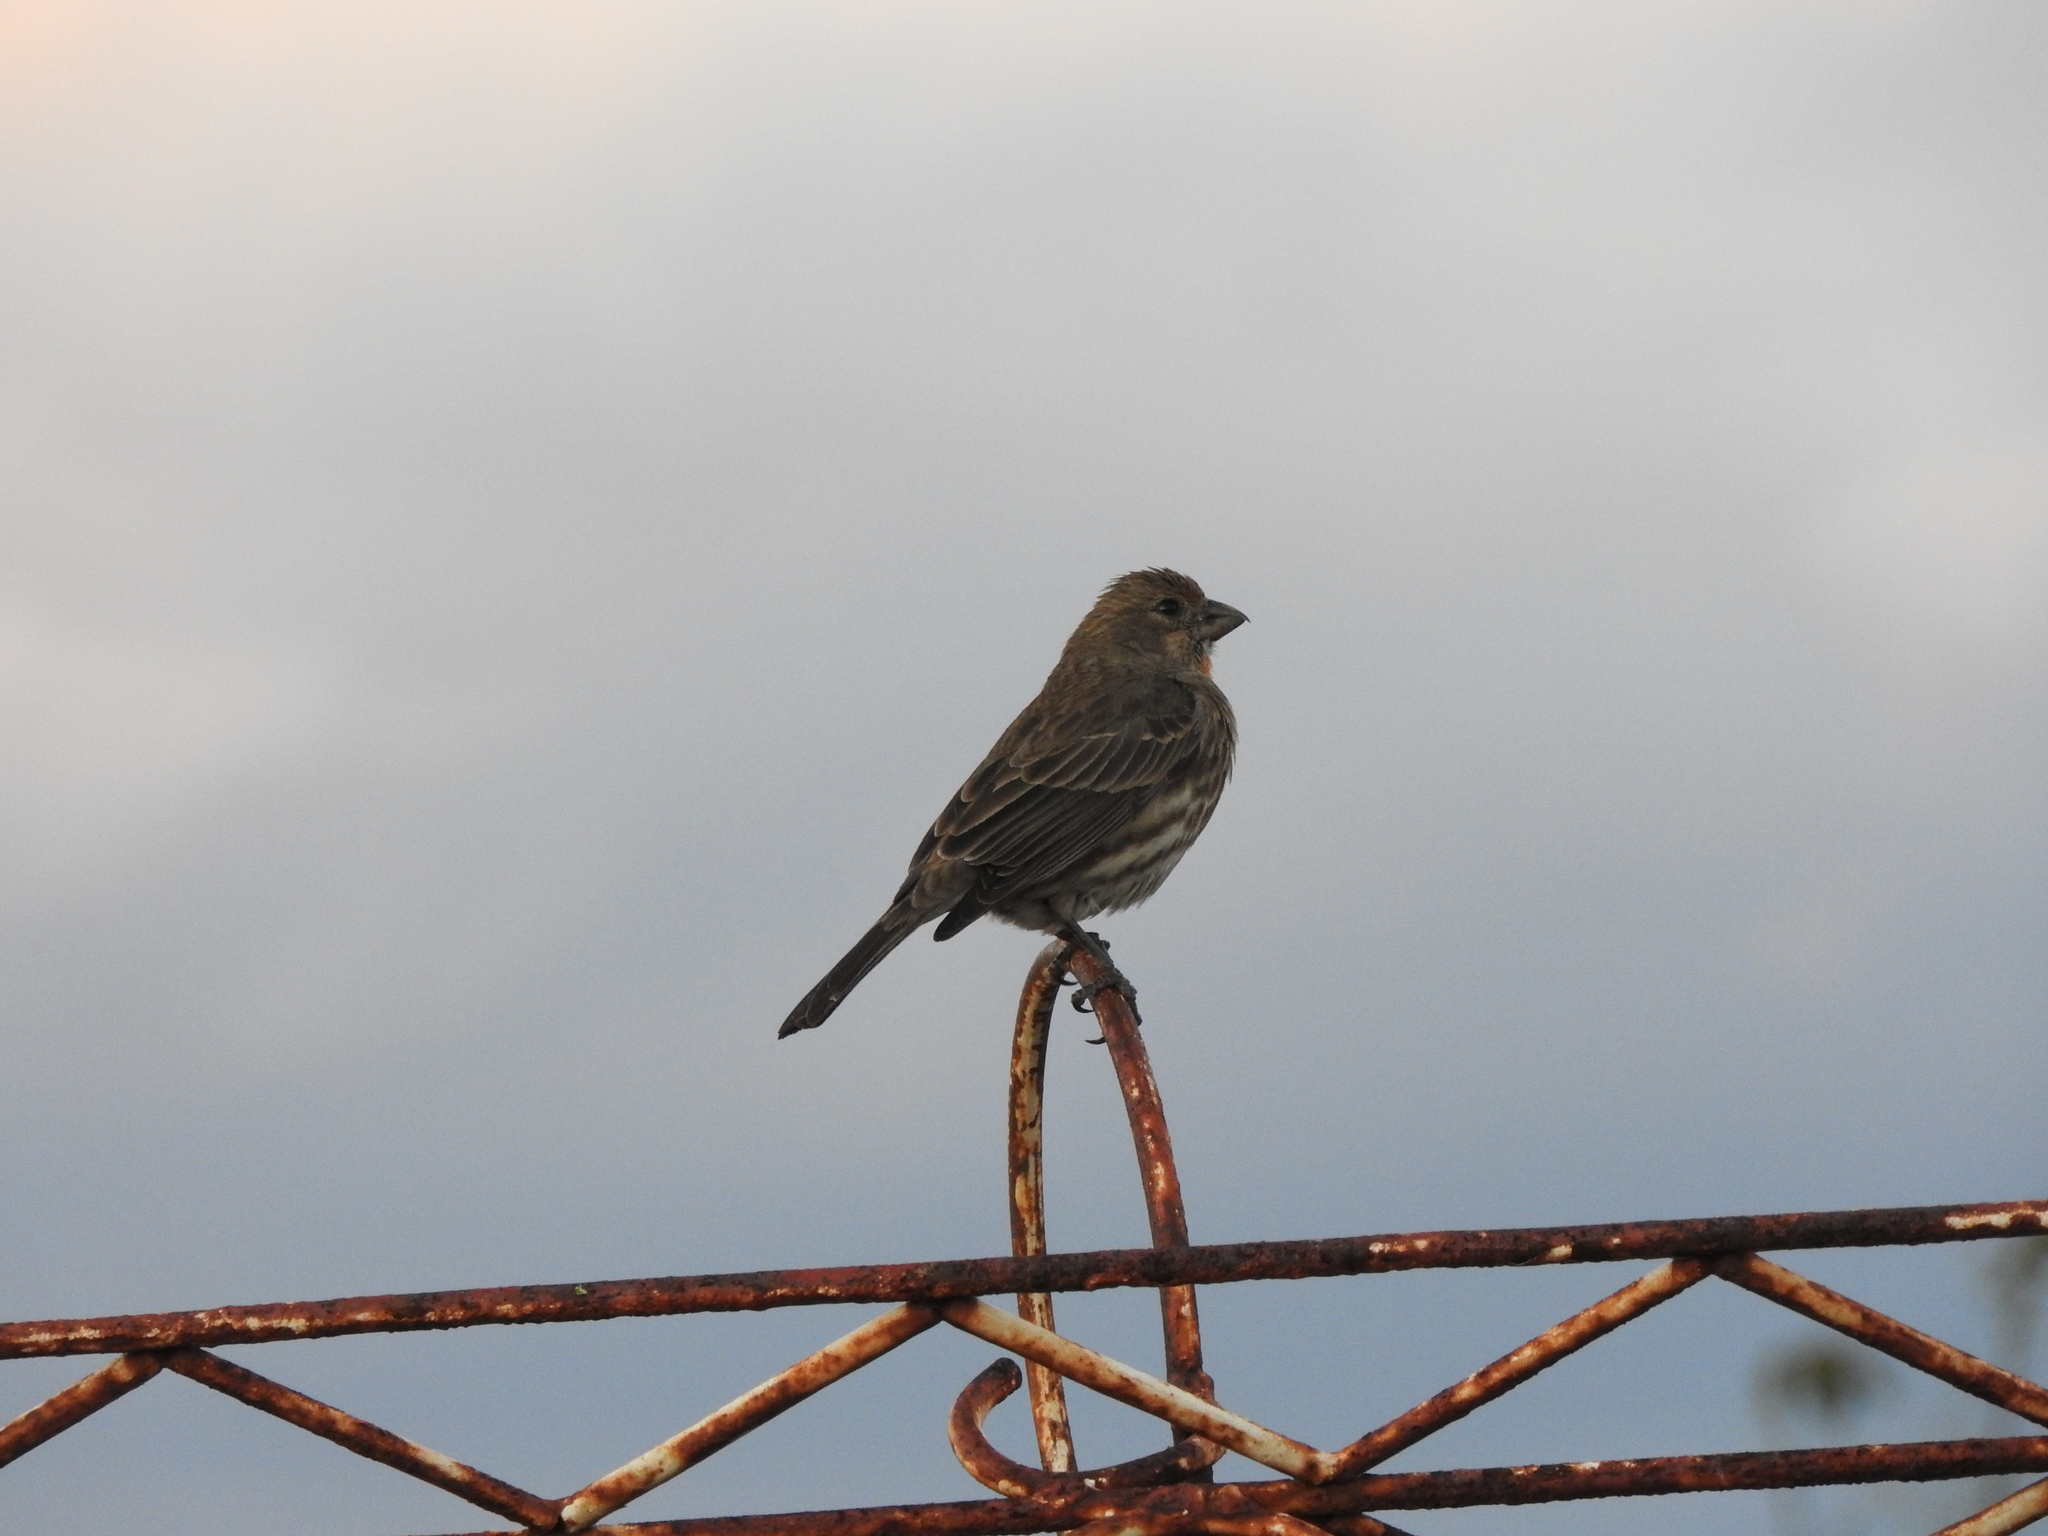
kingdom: Animalia
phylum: Chordata
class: Aves
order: Passeriformes
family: Fringillidae
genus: Haemorhous
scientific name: Haemorhous mexicanus
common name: House finch
